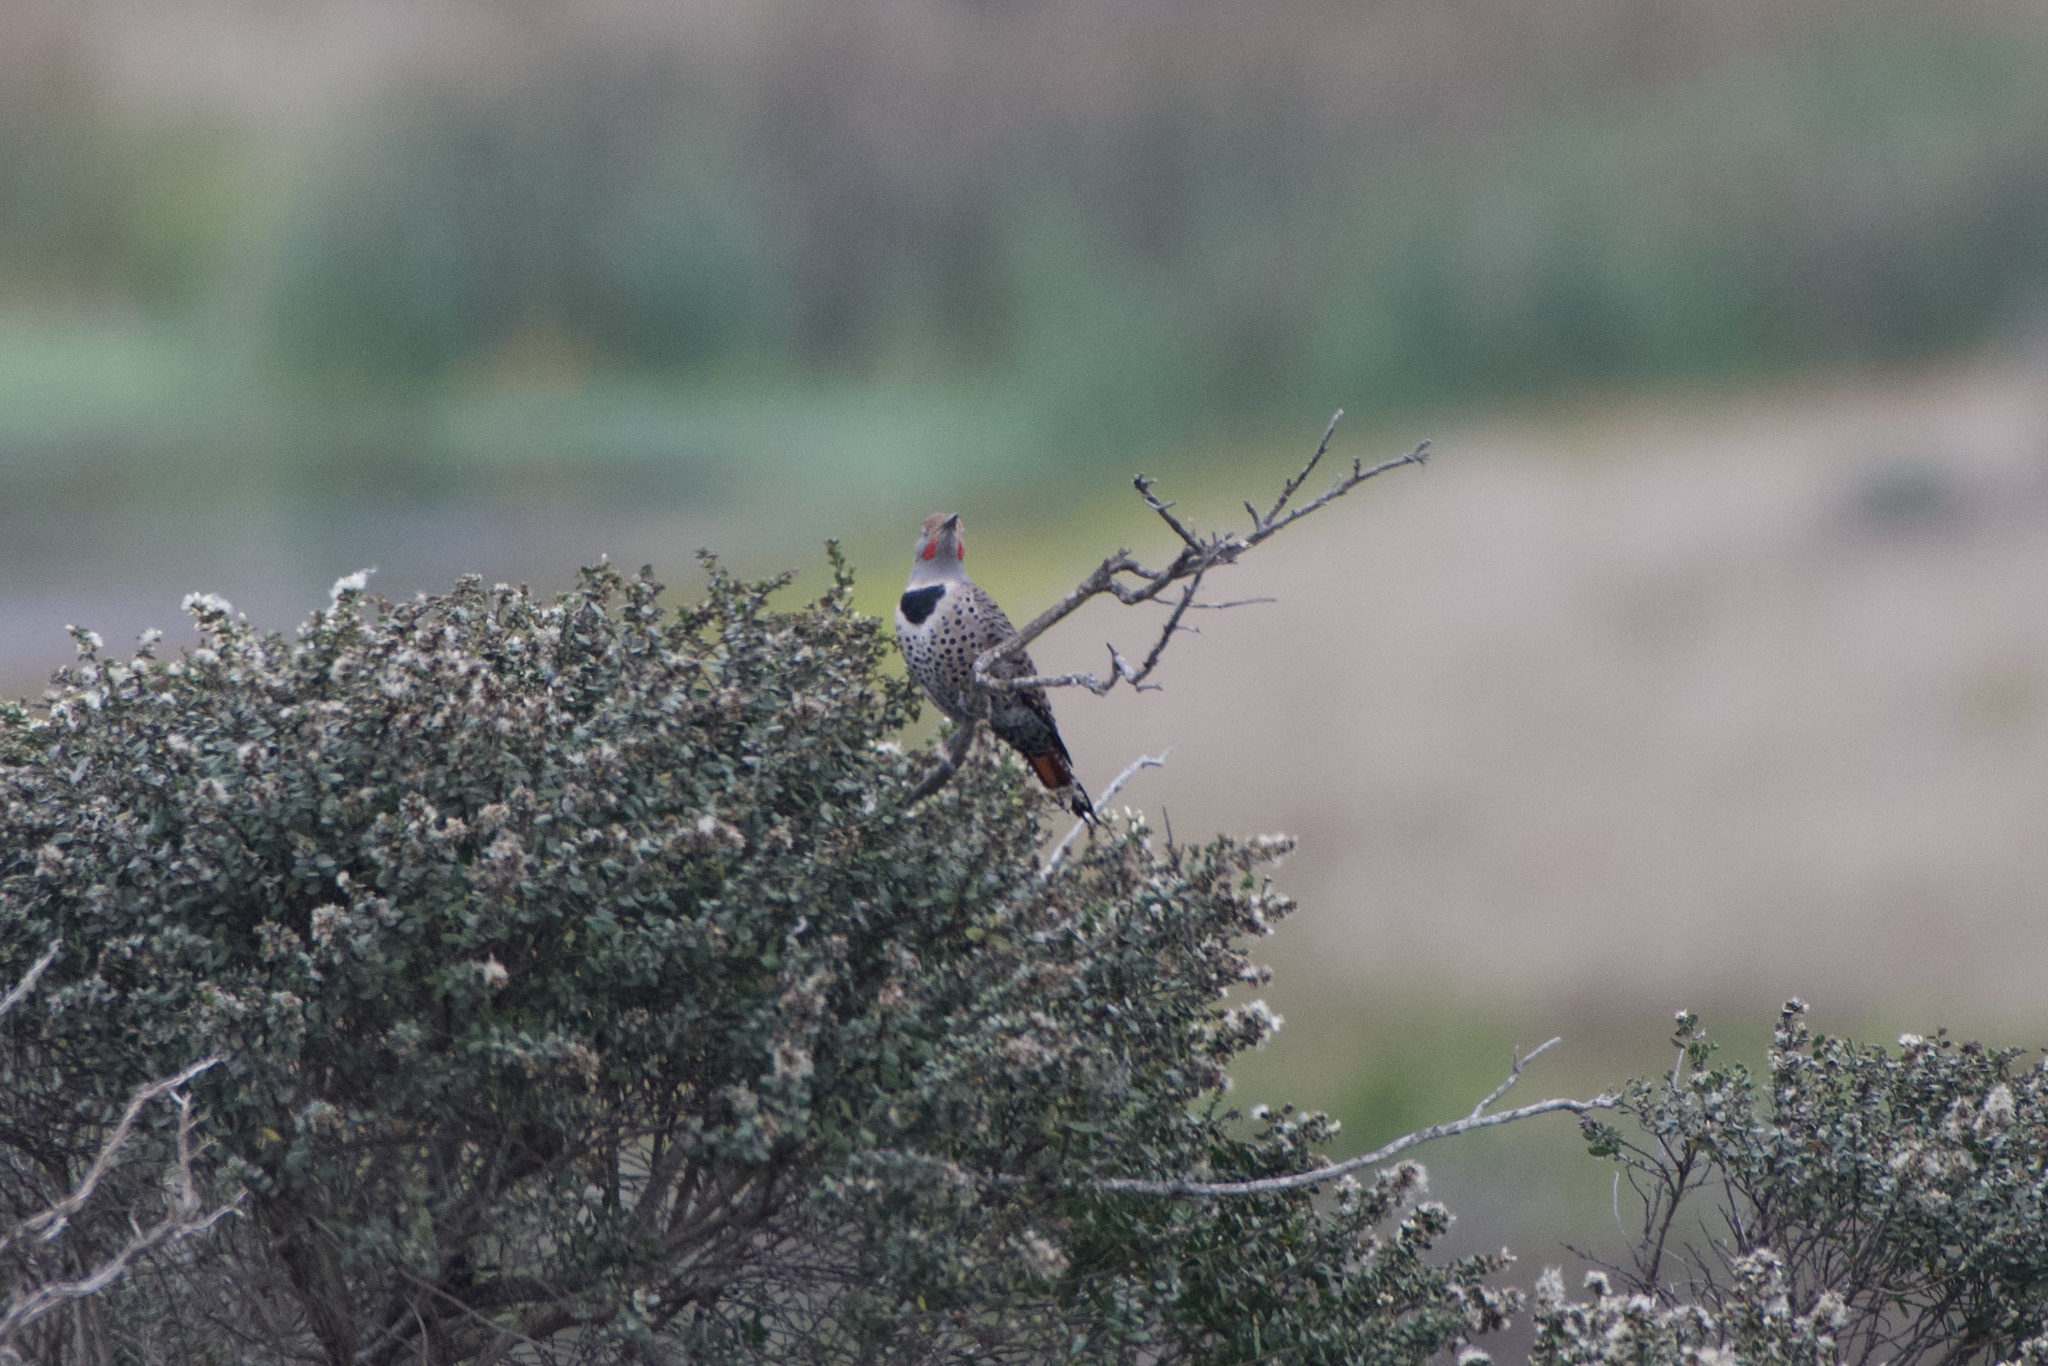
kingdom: Animalia
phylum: Chordata
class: Aves
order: Piciformes
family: Picidae
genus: Colaptes
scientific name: Colaptes auratus
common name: Northern flicker
